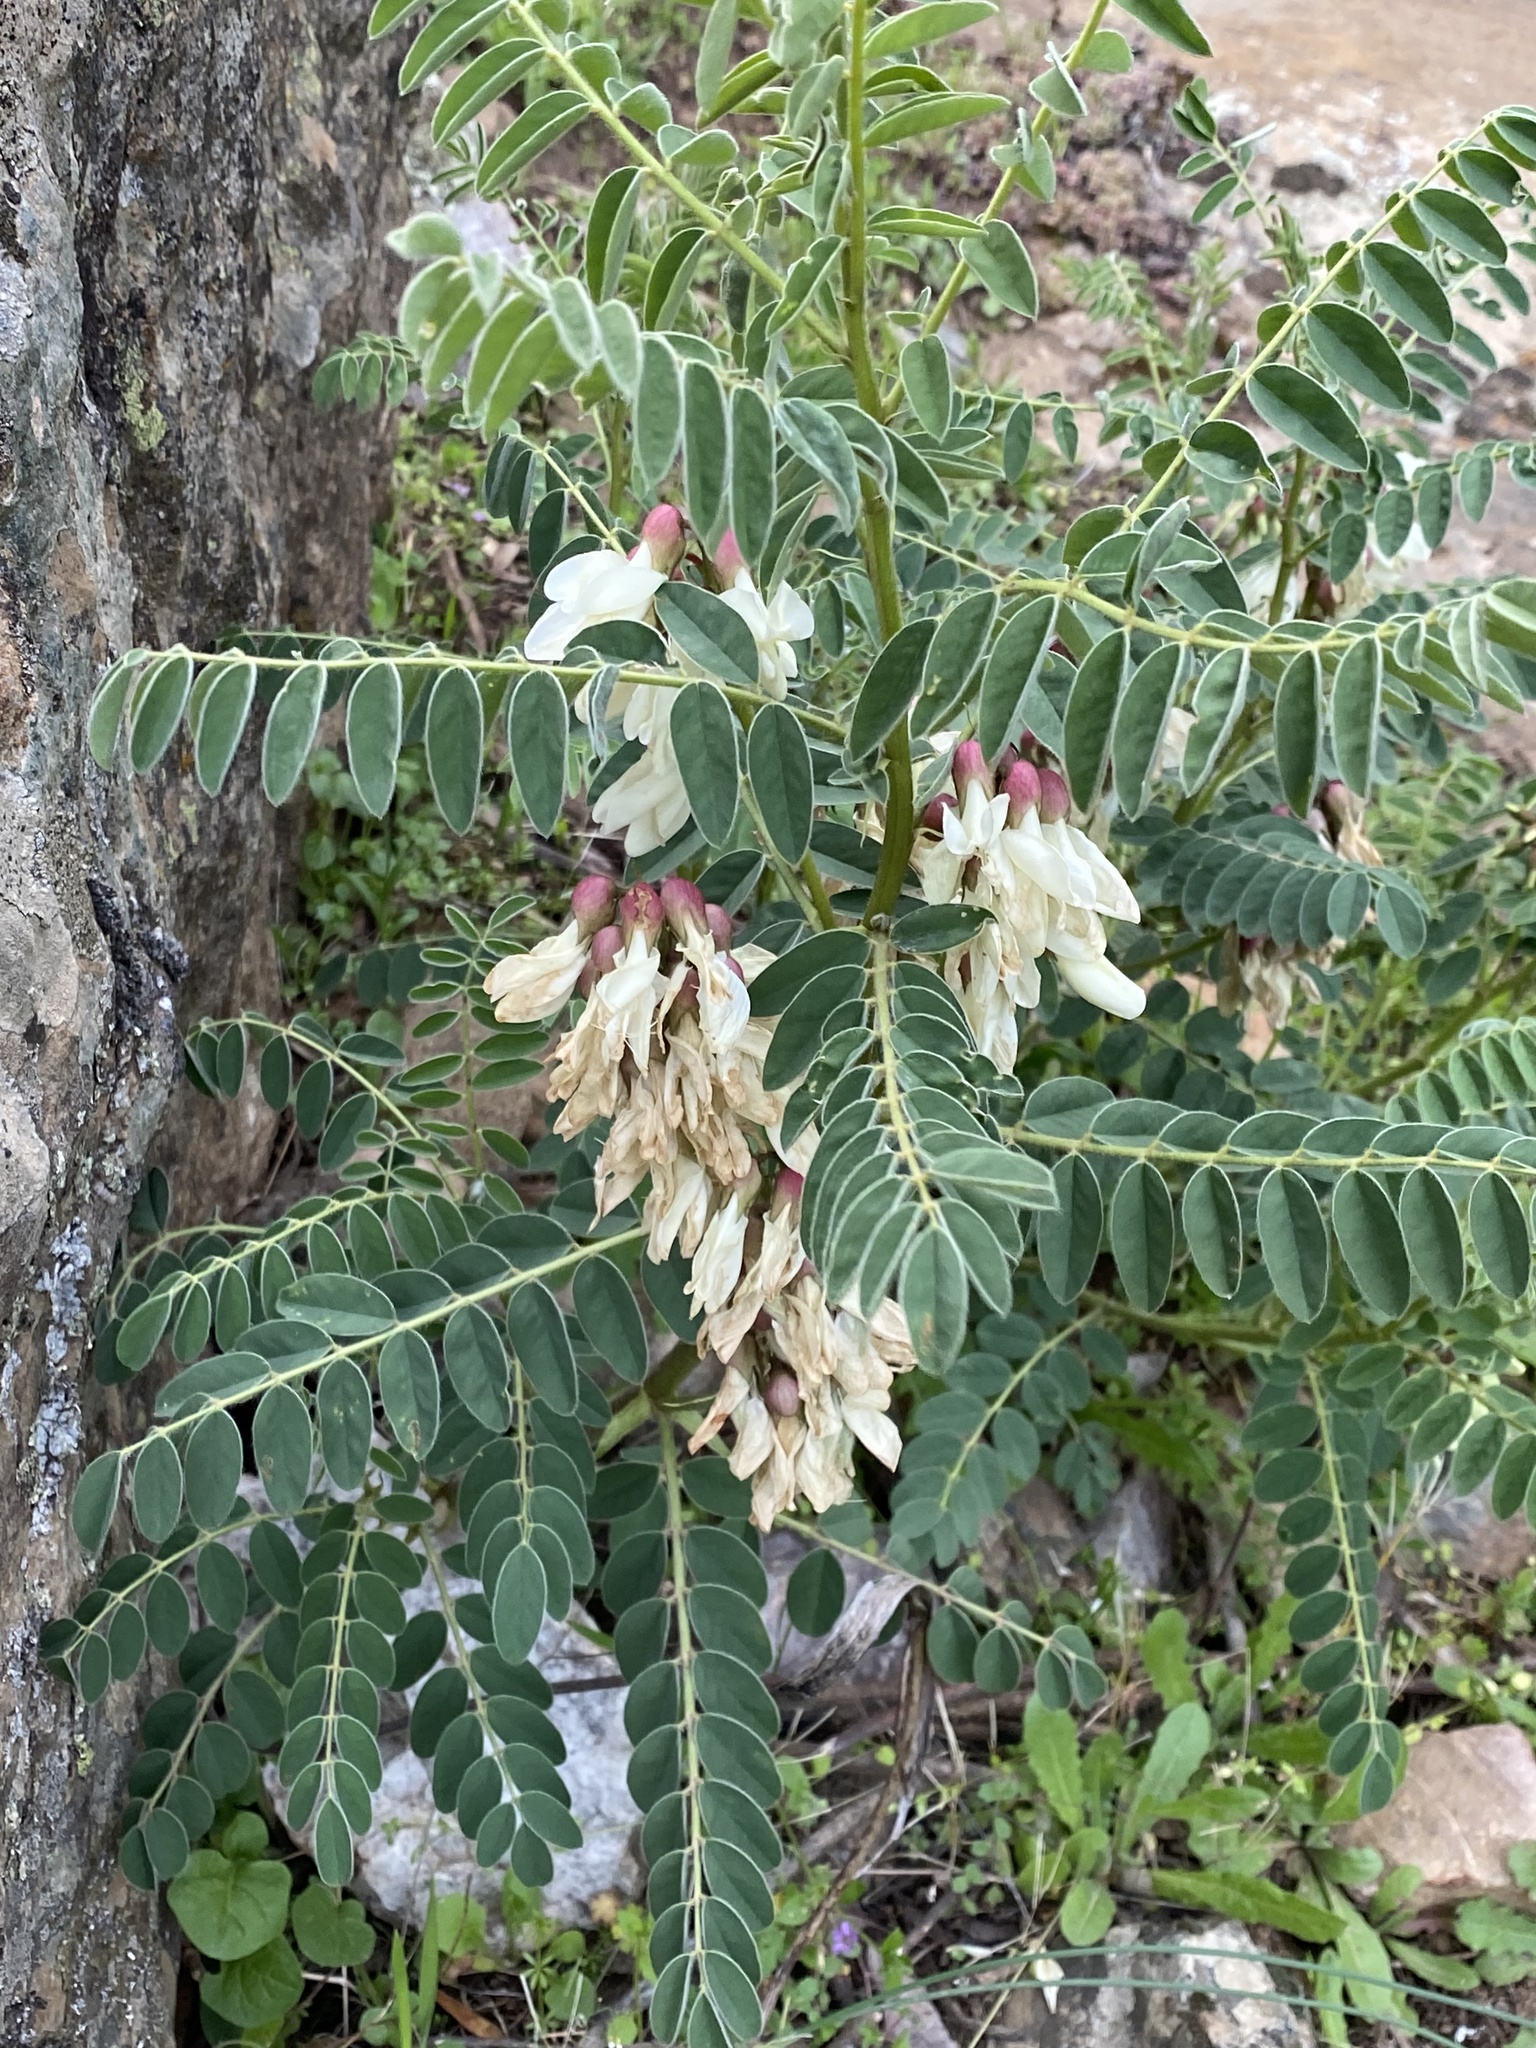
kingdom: Plantae
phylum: Tracheophyta
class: Magnoliopsida
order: Fabales
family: Fabaceae
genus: Erophaca
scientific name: Erophaca baetica
